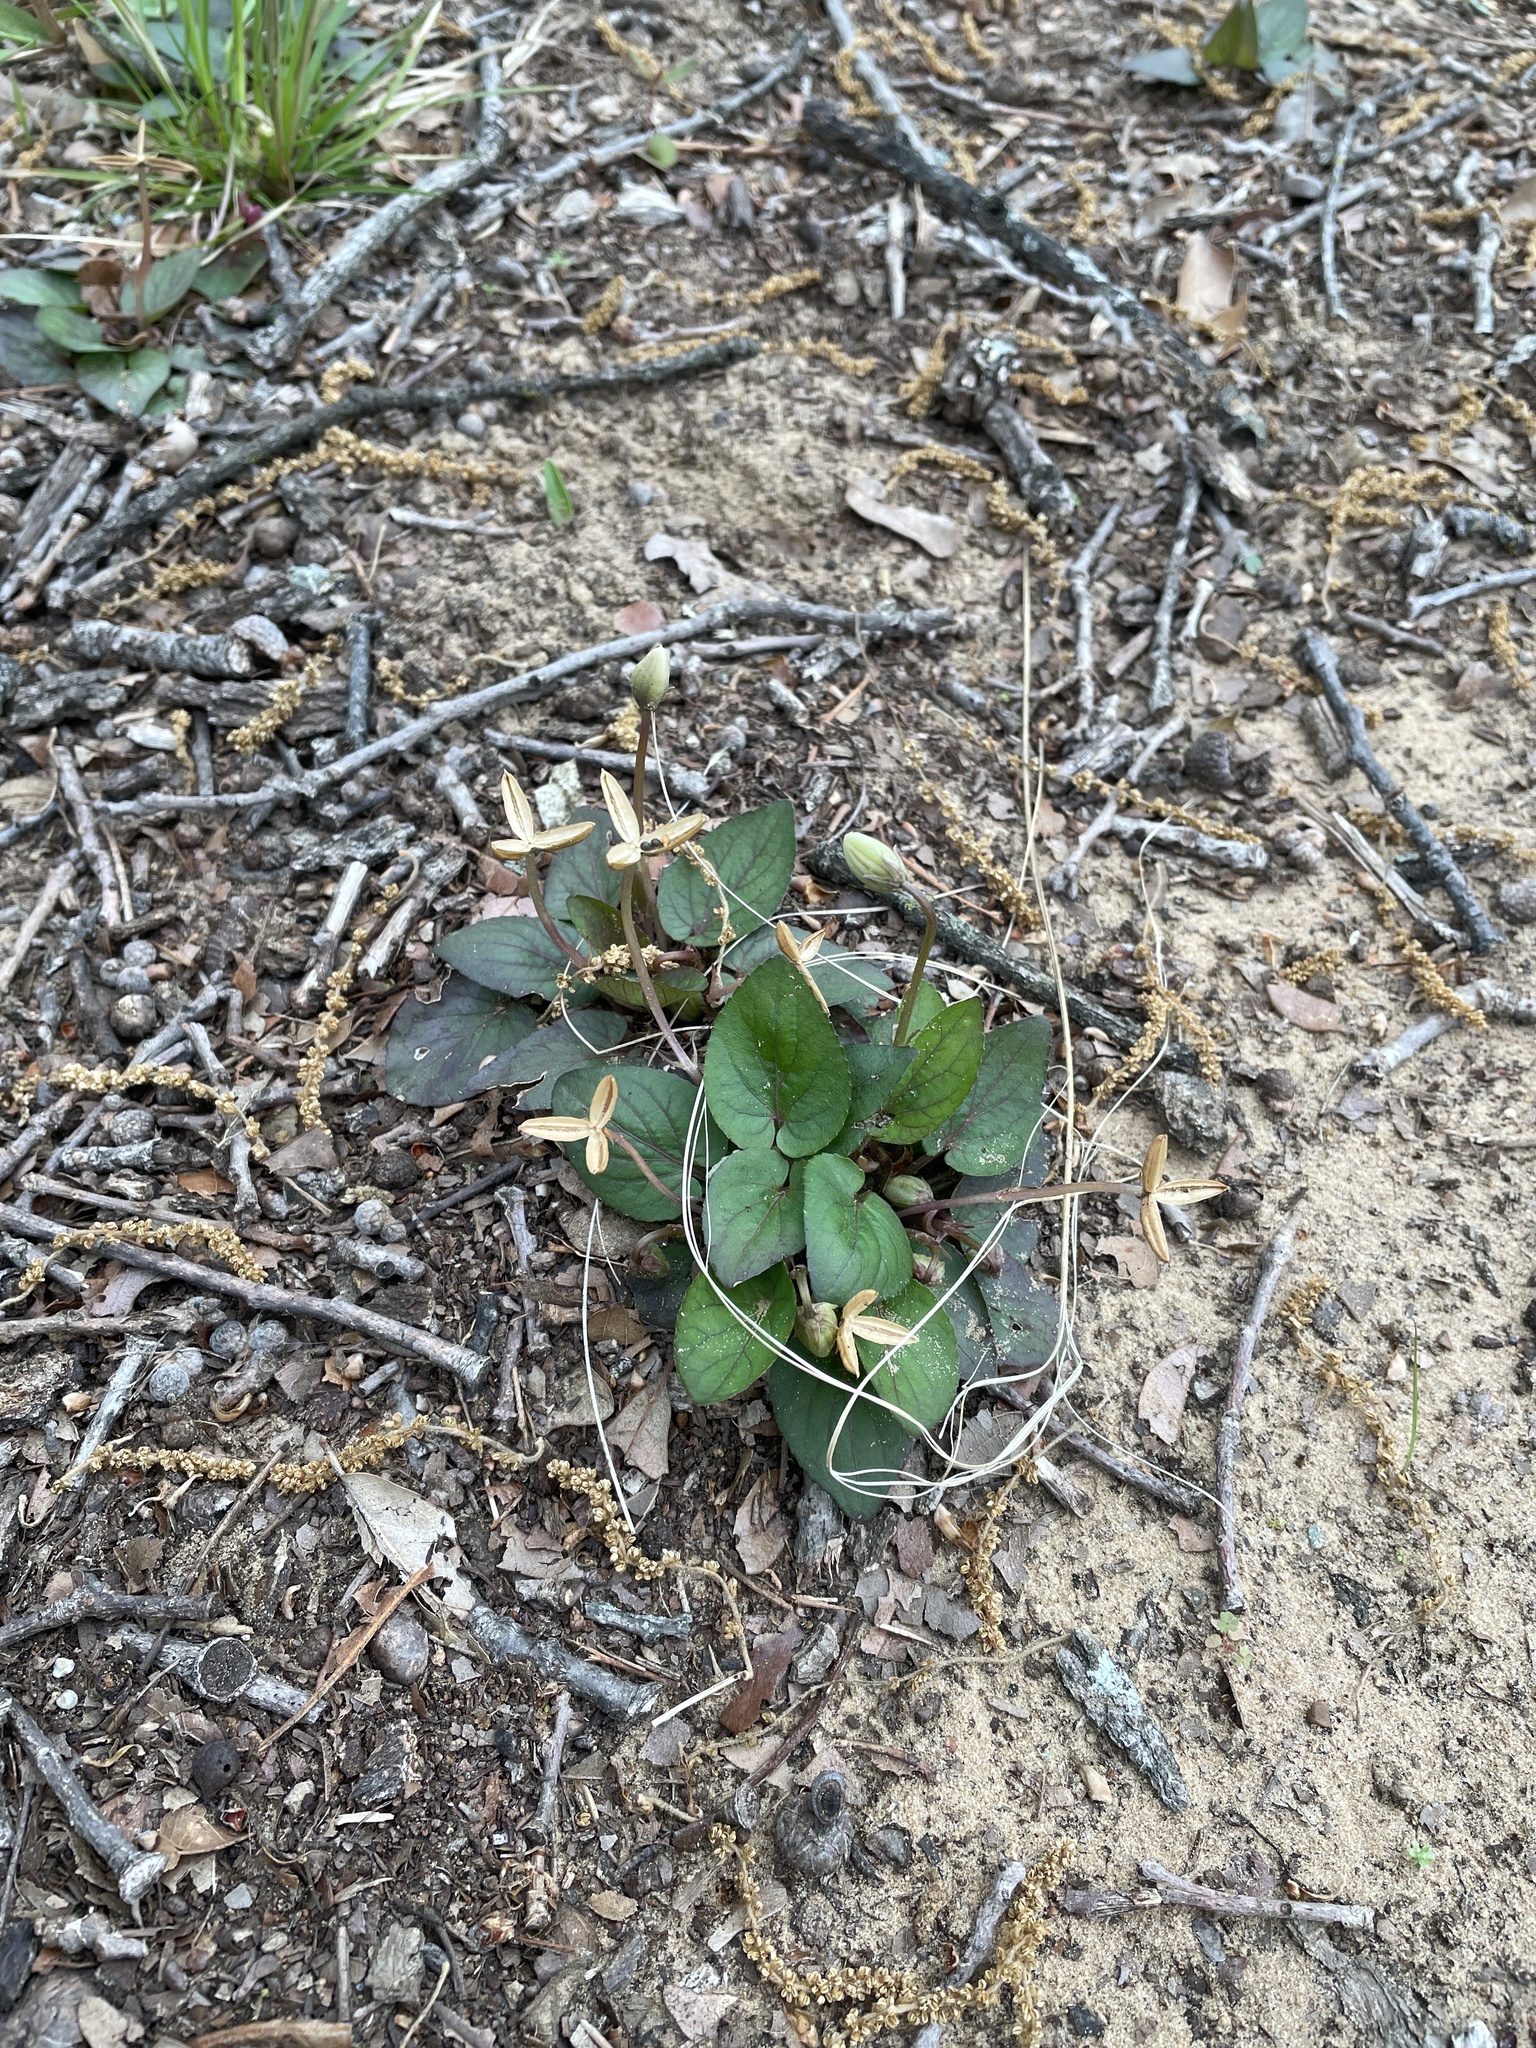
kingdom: Plantae
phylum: Tracheophyta
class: Magnoliopsida
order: Malpighiales
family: Violaceae
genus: Viola
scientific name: Viola villosa
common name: Carolina violet
